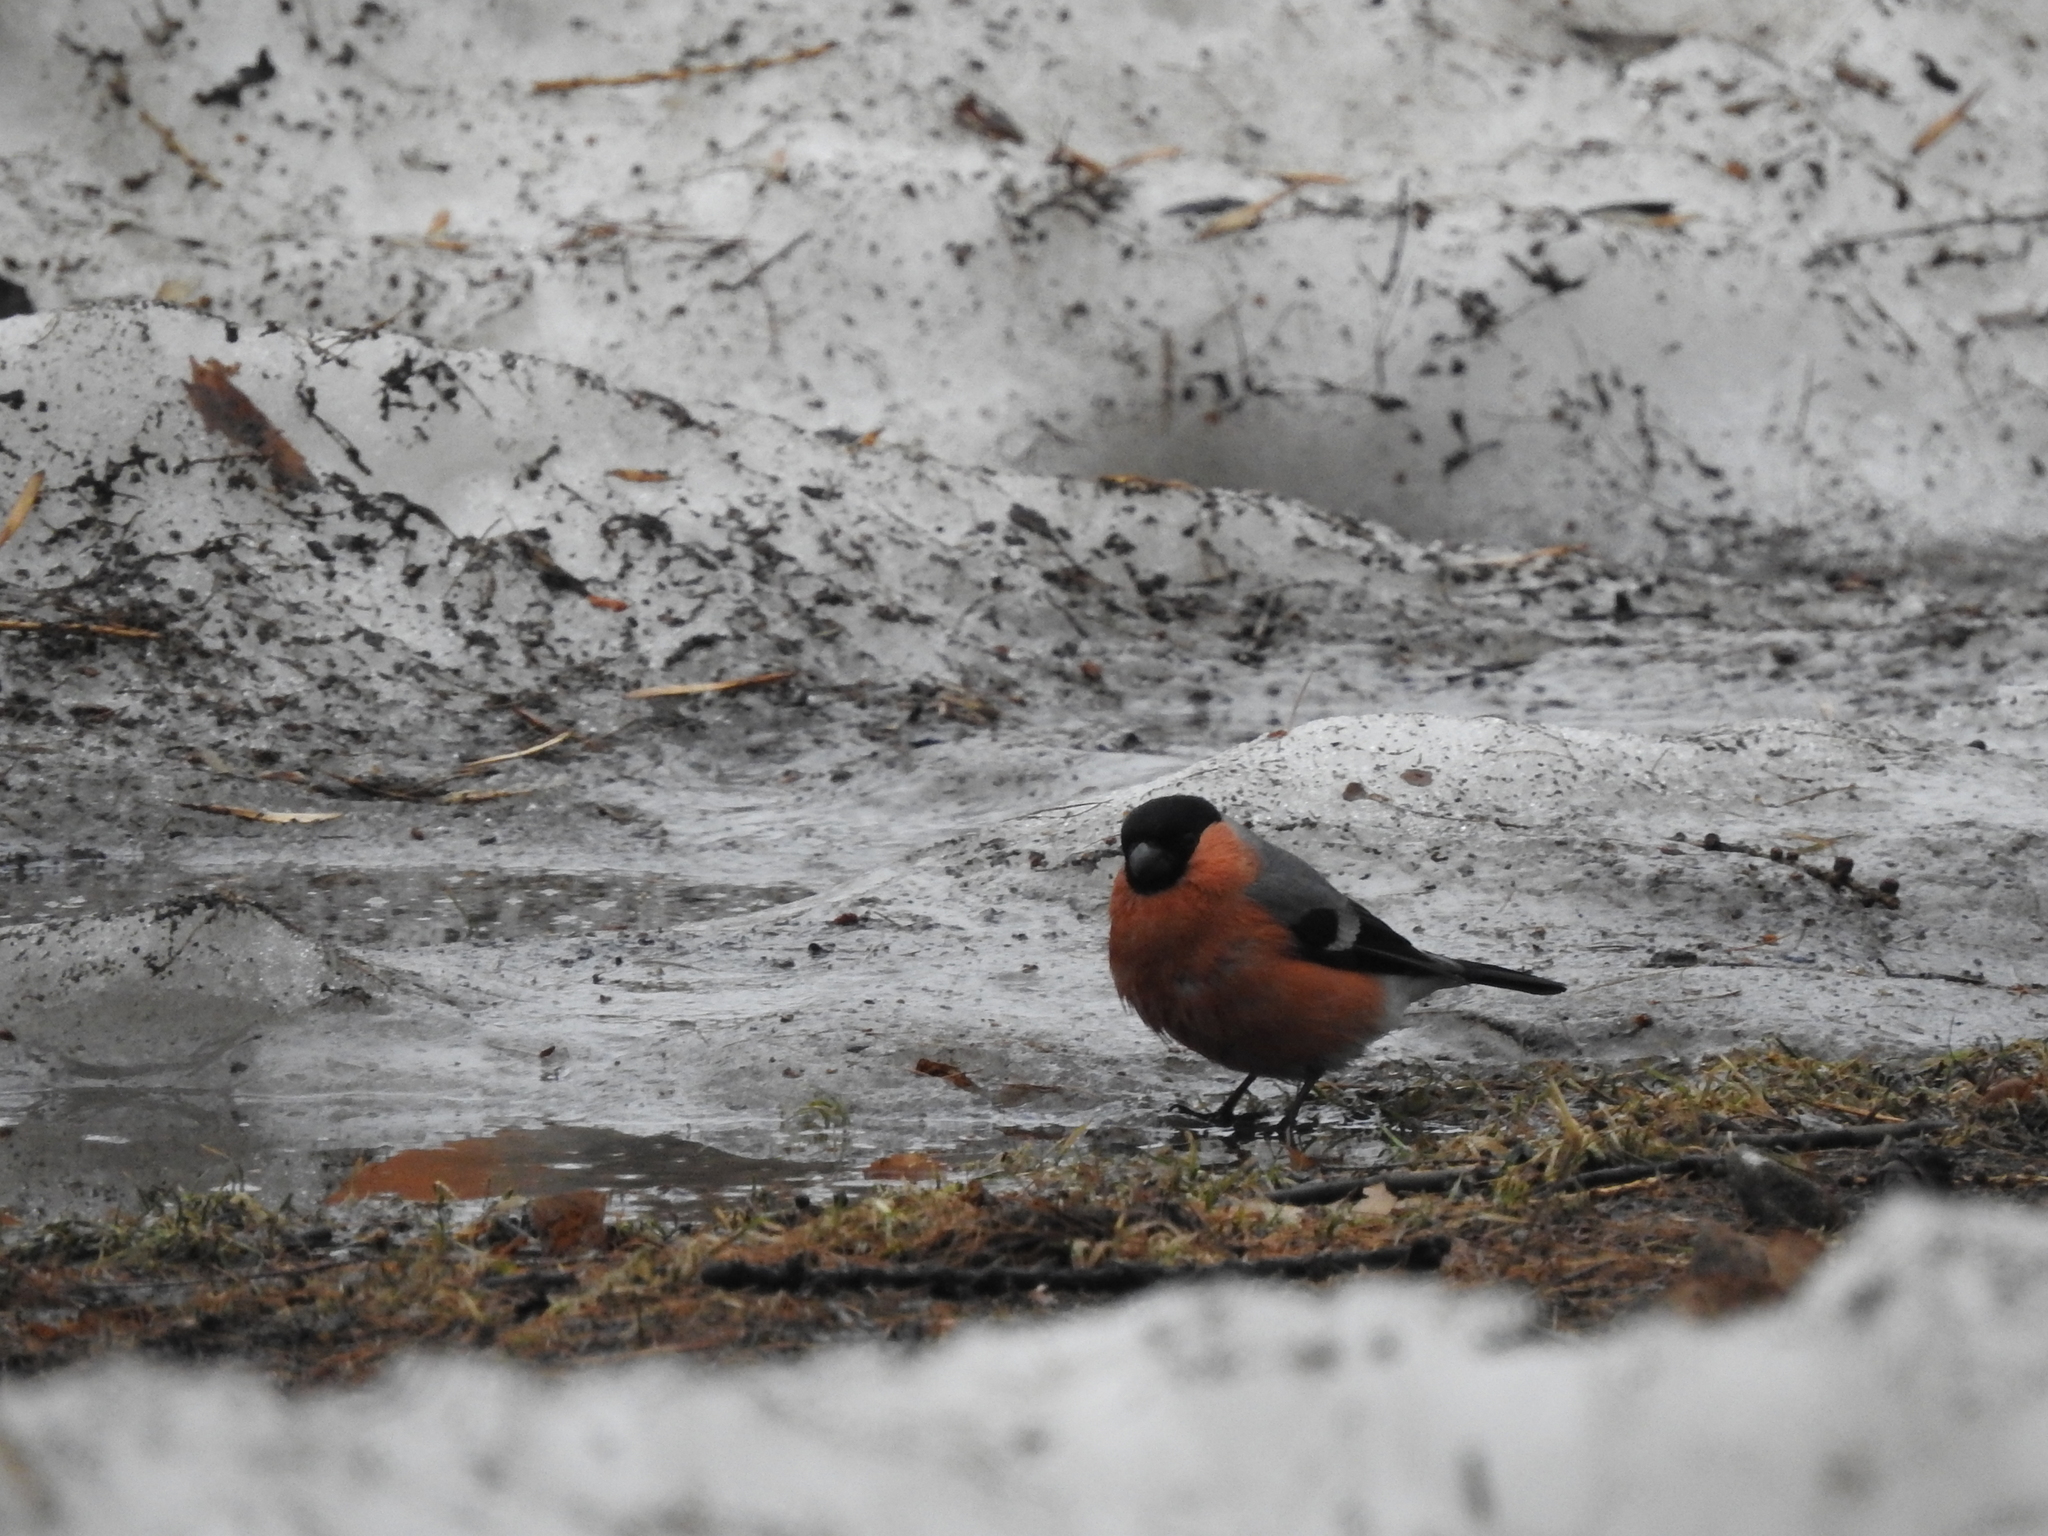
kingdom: Animalia
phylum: Chordata
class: Aves
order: Passeriformes
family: Fringillidae
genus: Pyrrhula
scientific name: Pyrrhula pyrrhula
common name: Eurasian bullfinch
